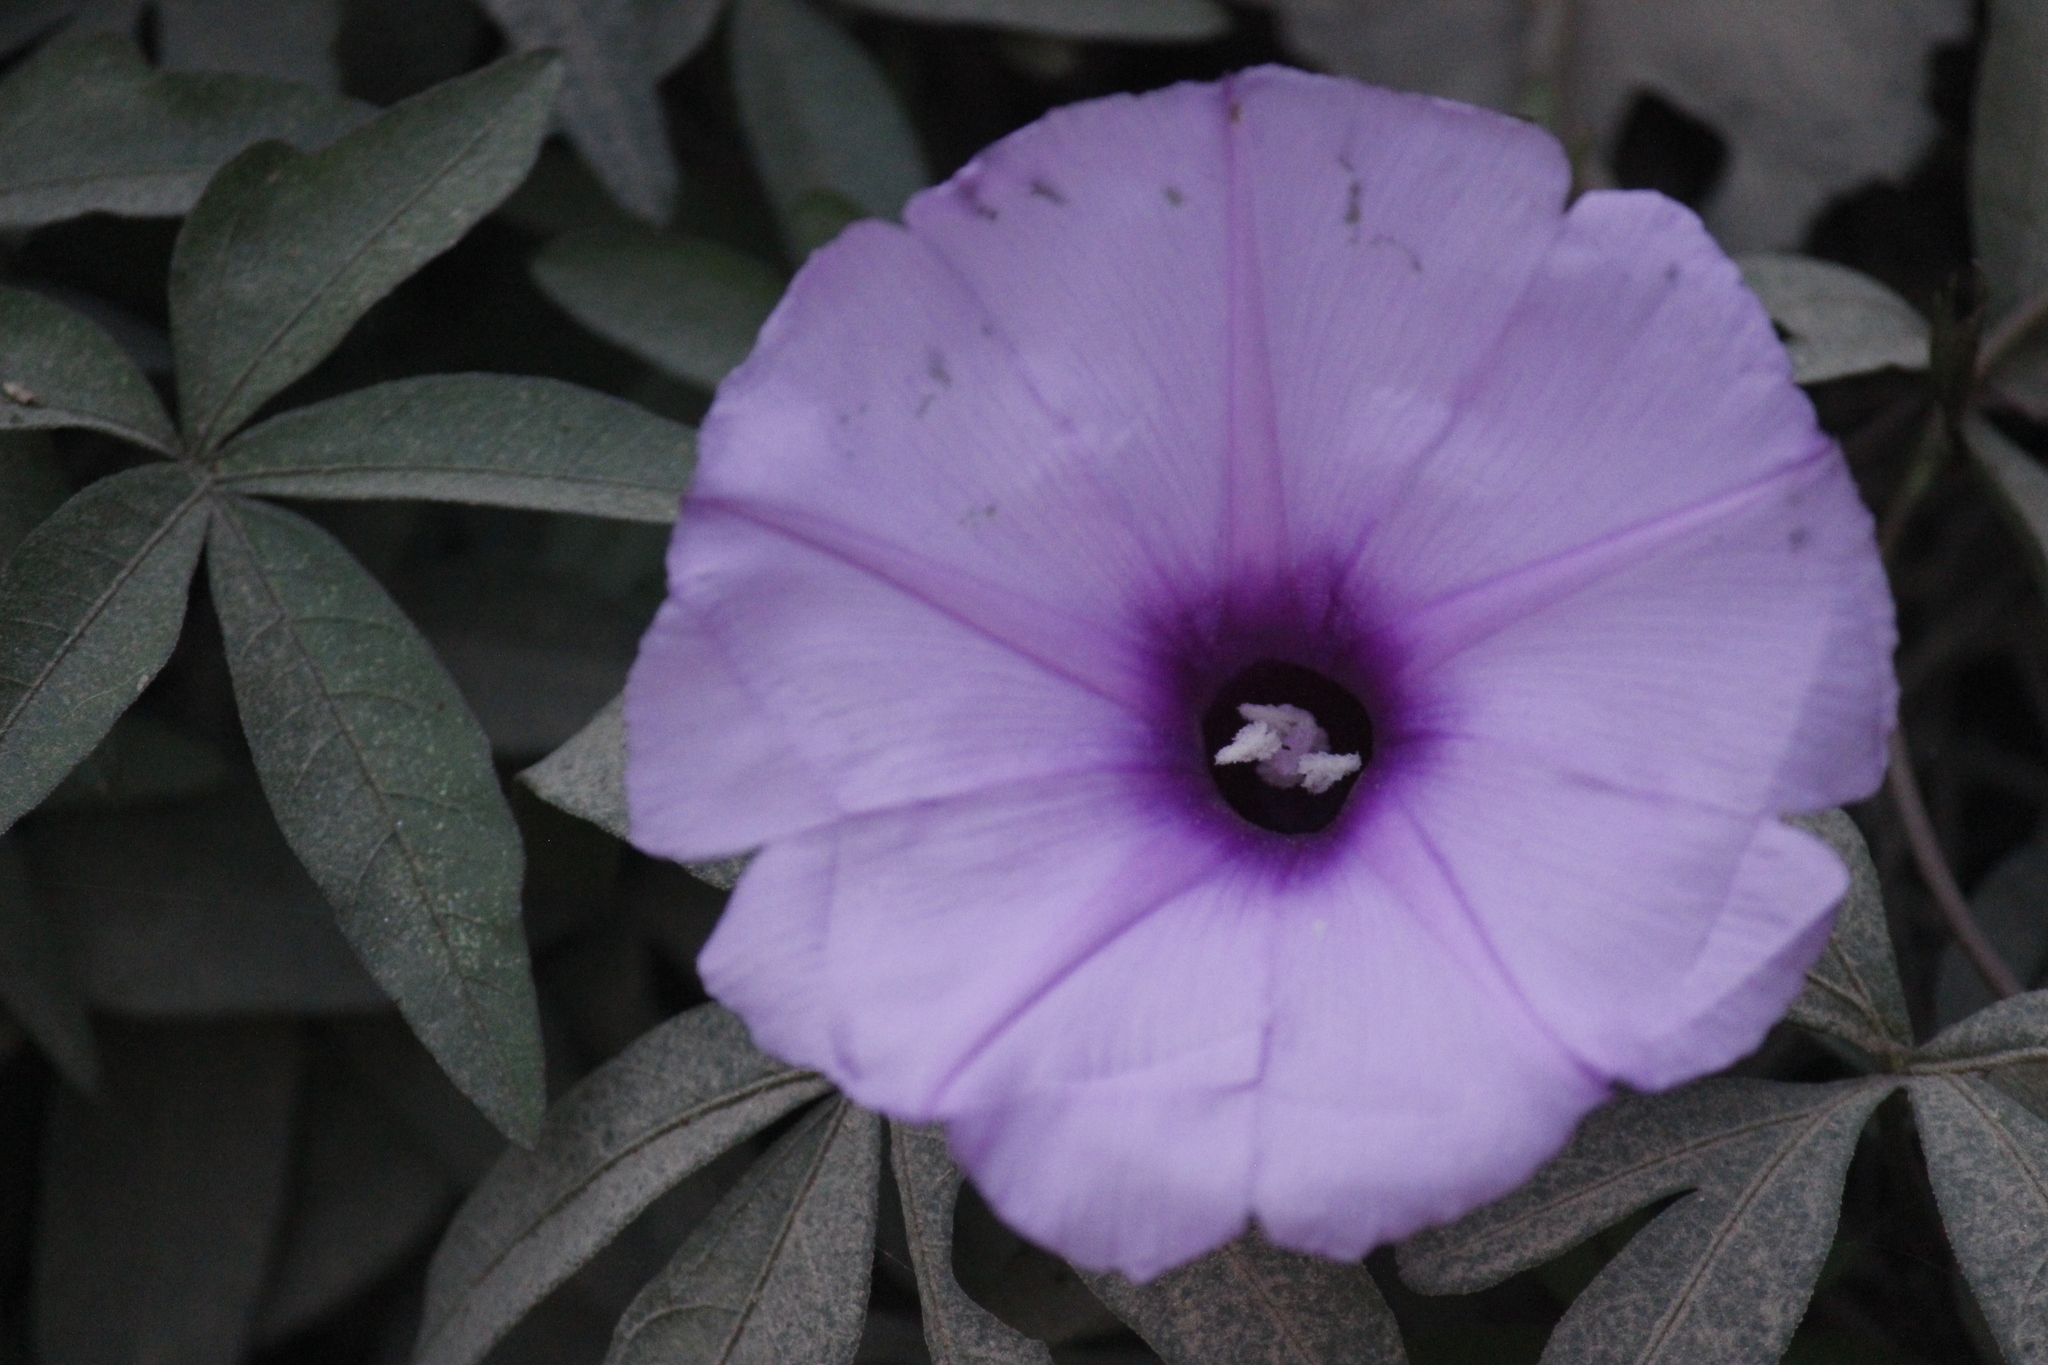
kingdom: Plantae
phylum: Tracheophyta
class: Magnoliopsida
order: Solanales
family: Convolvulaceae
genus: Ipomoea
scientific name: Ipomoea cairica
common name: Mile a minute vine
